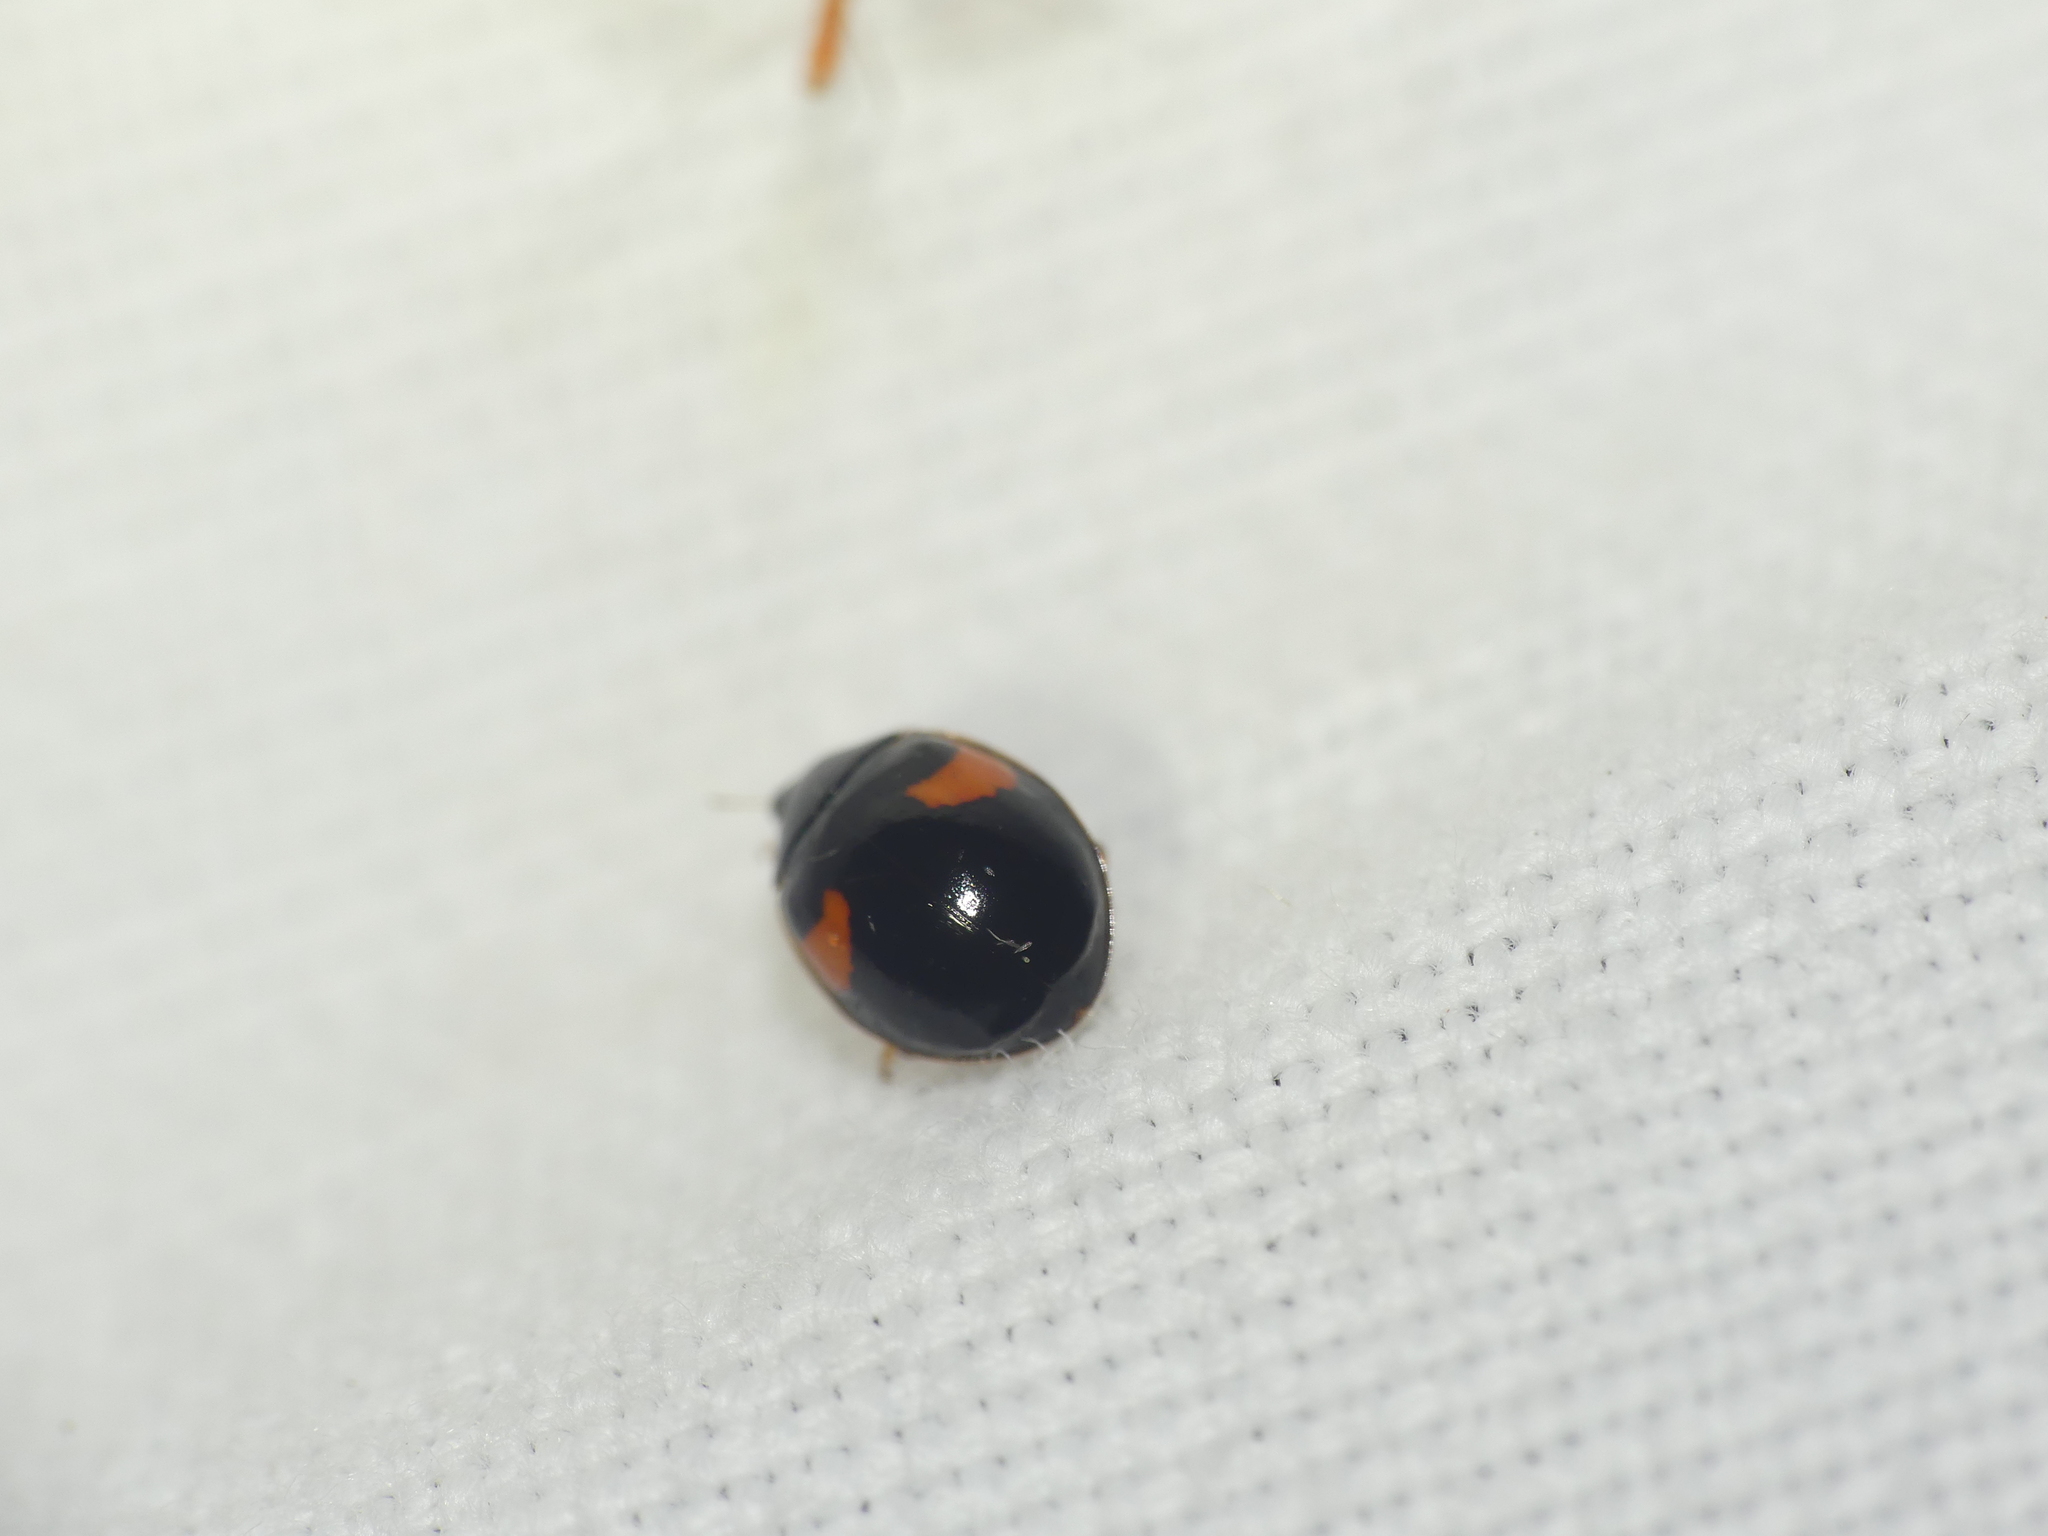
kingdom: Animalia
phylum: Arthropoda
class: Insecta
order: Coleoptera
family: Coccinellidae
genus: Adalia
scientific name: Adalia decempunctata
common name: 10-spot ladybird
